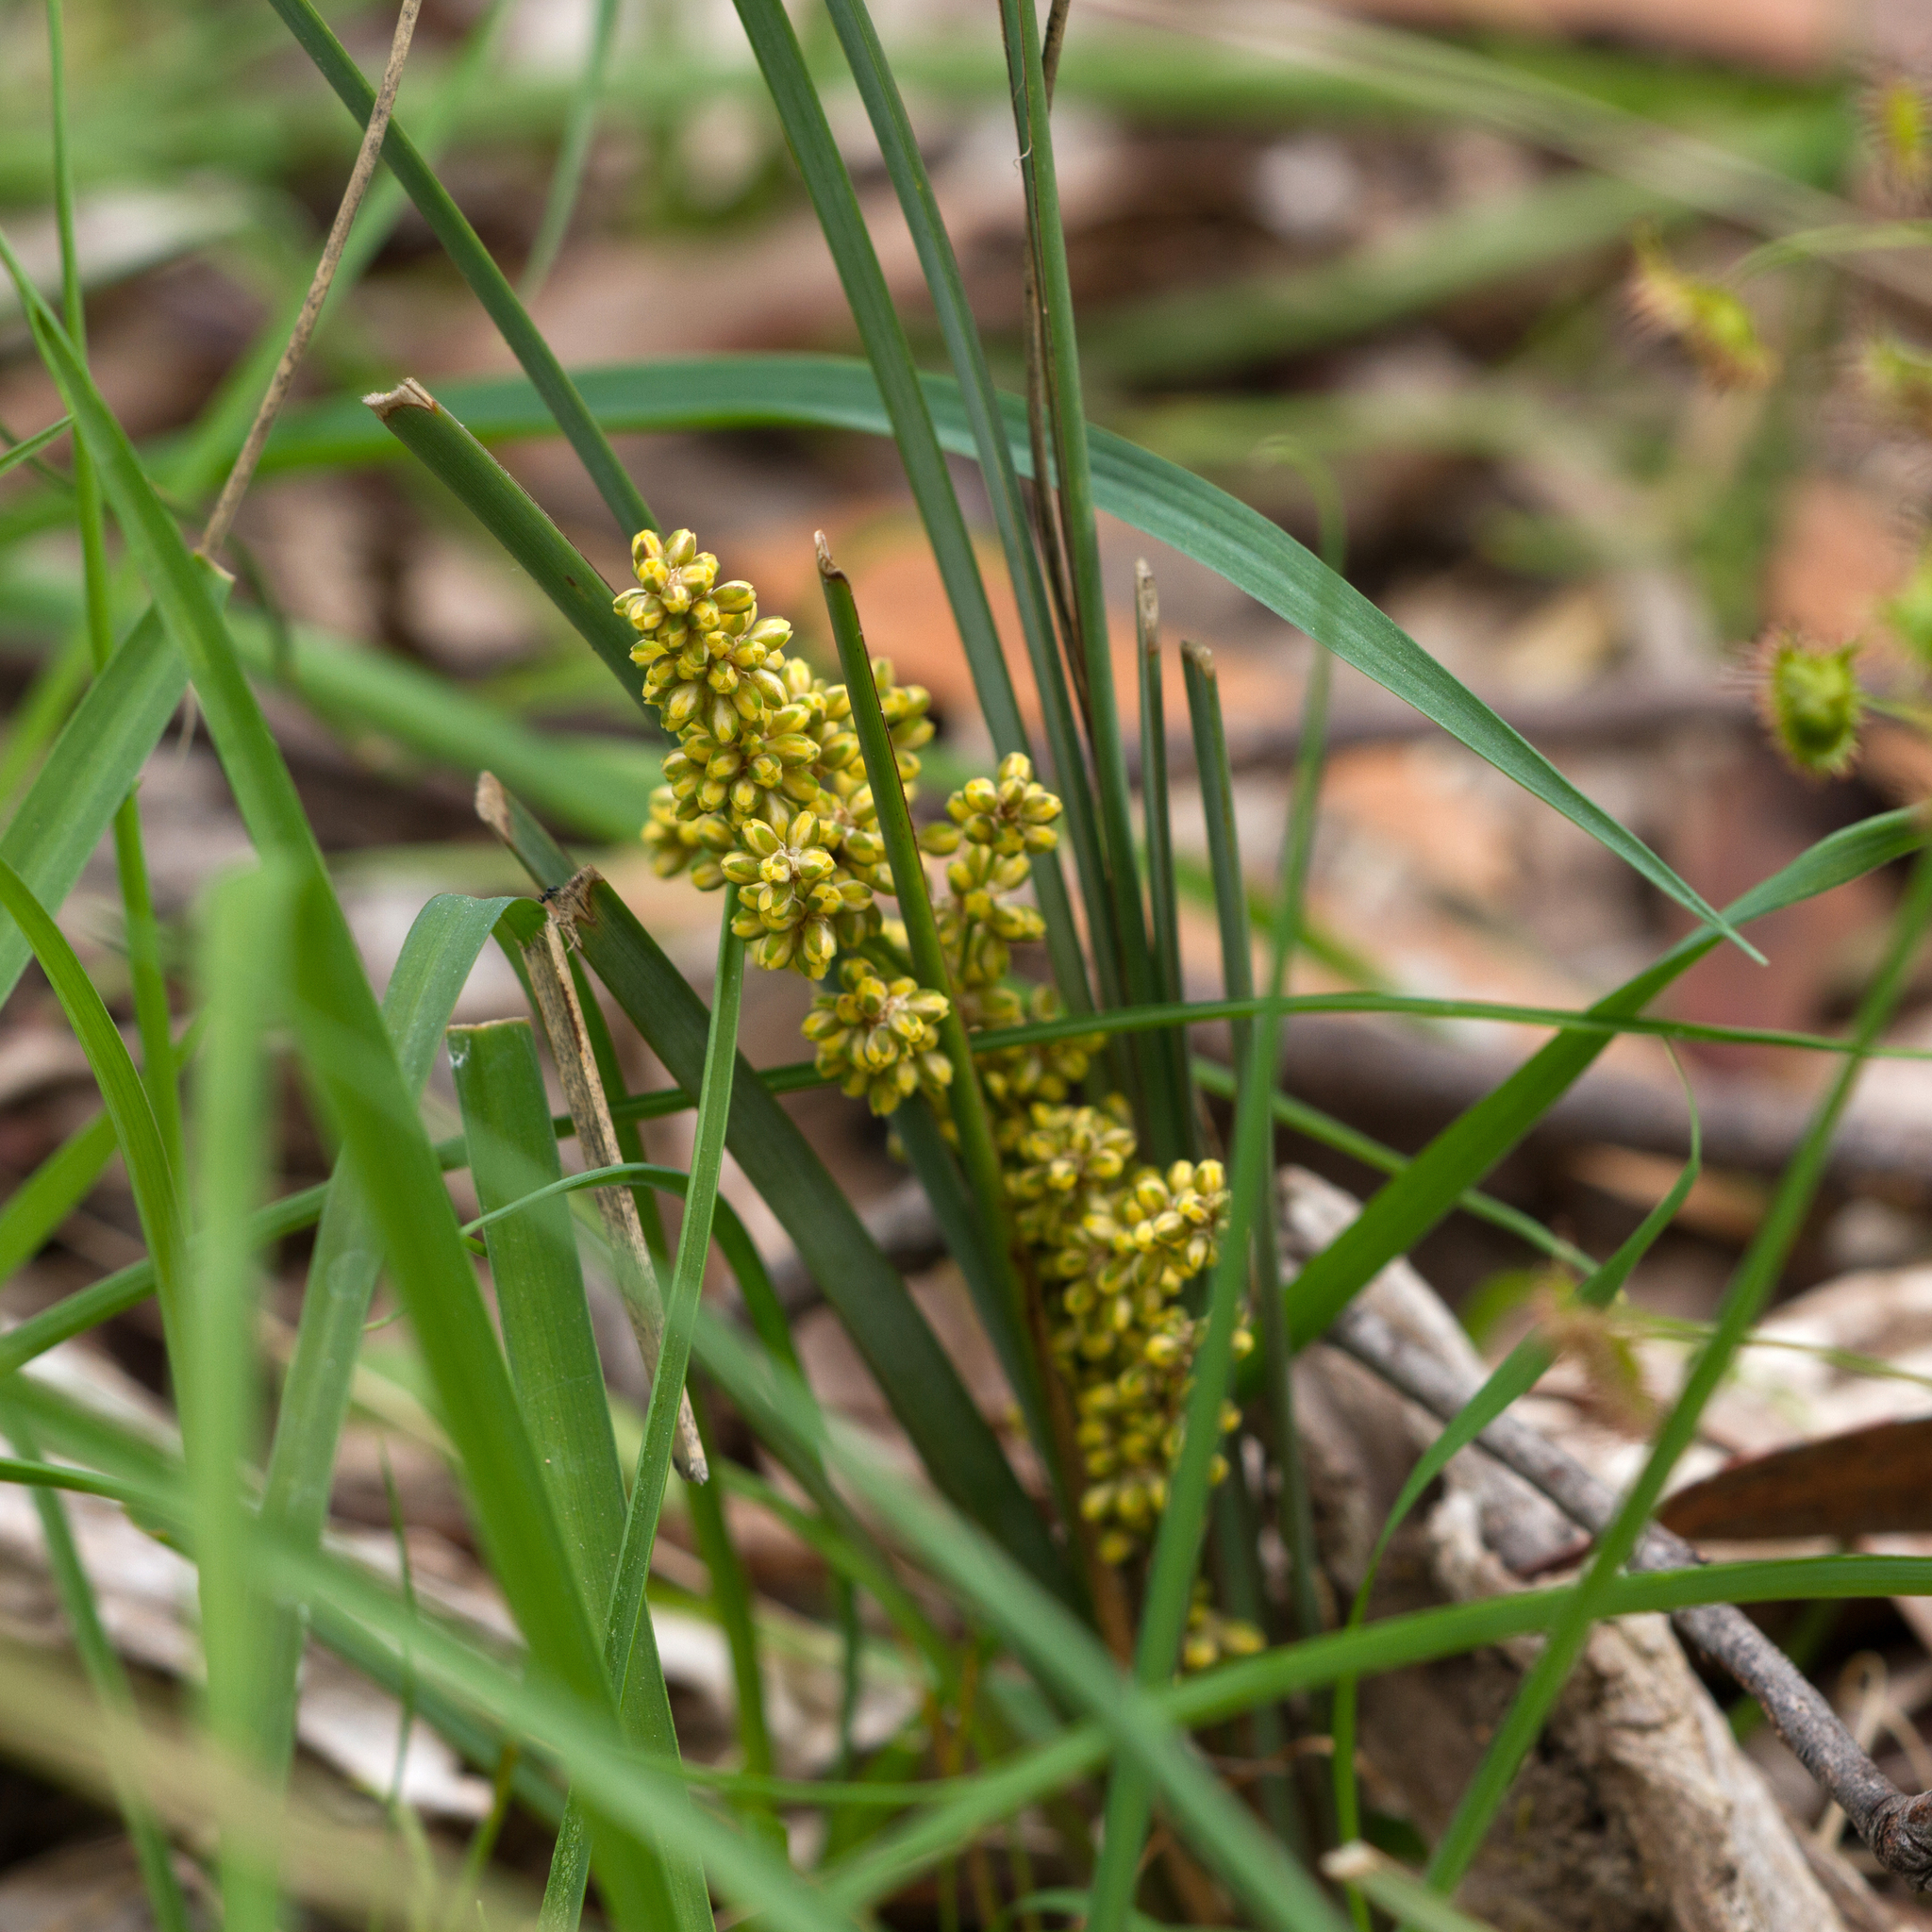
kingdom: Plantae
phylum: Tracheophyta
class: Liliopsida
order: Asparagales
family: Asparagaceae
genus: Lomandra
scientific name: Lomandra multiflora
